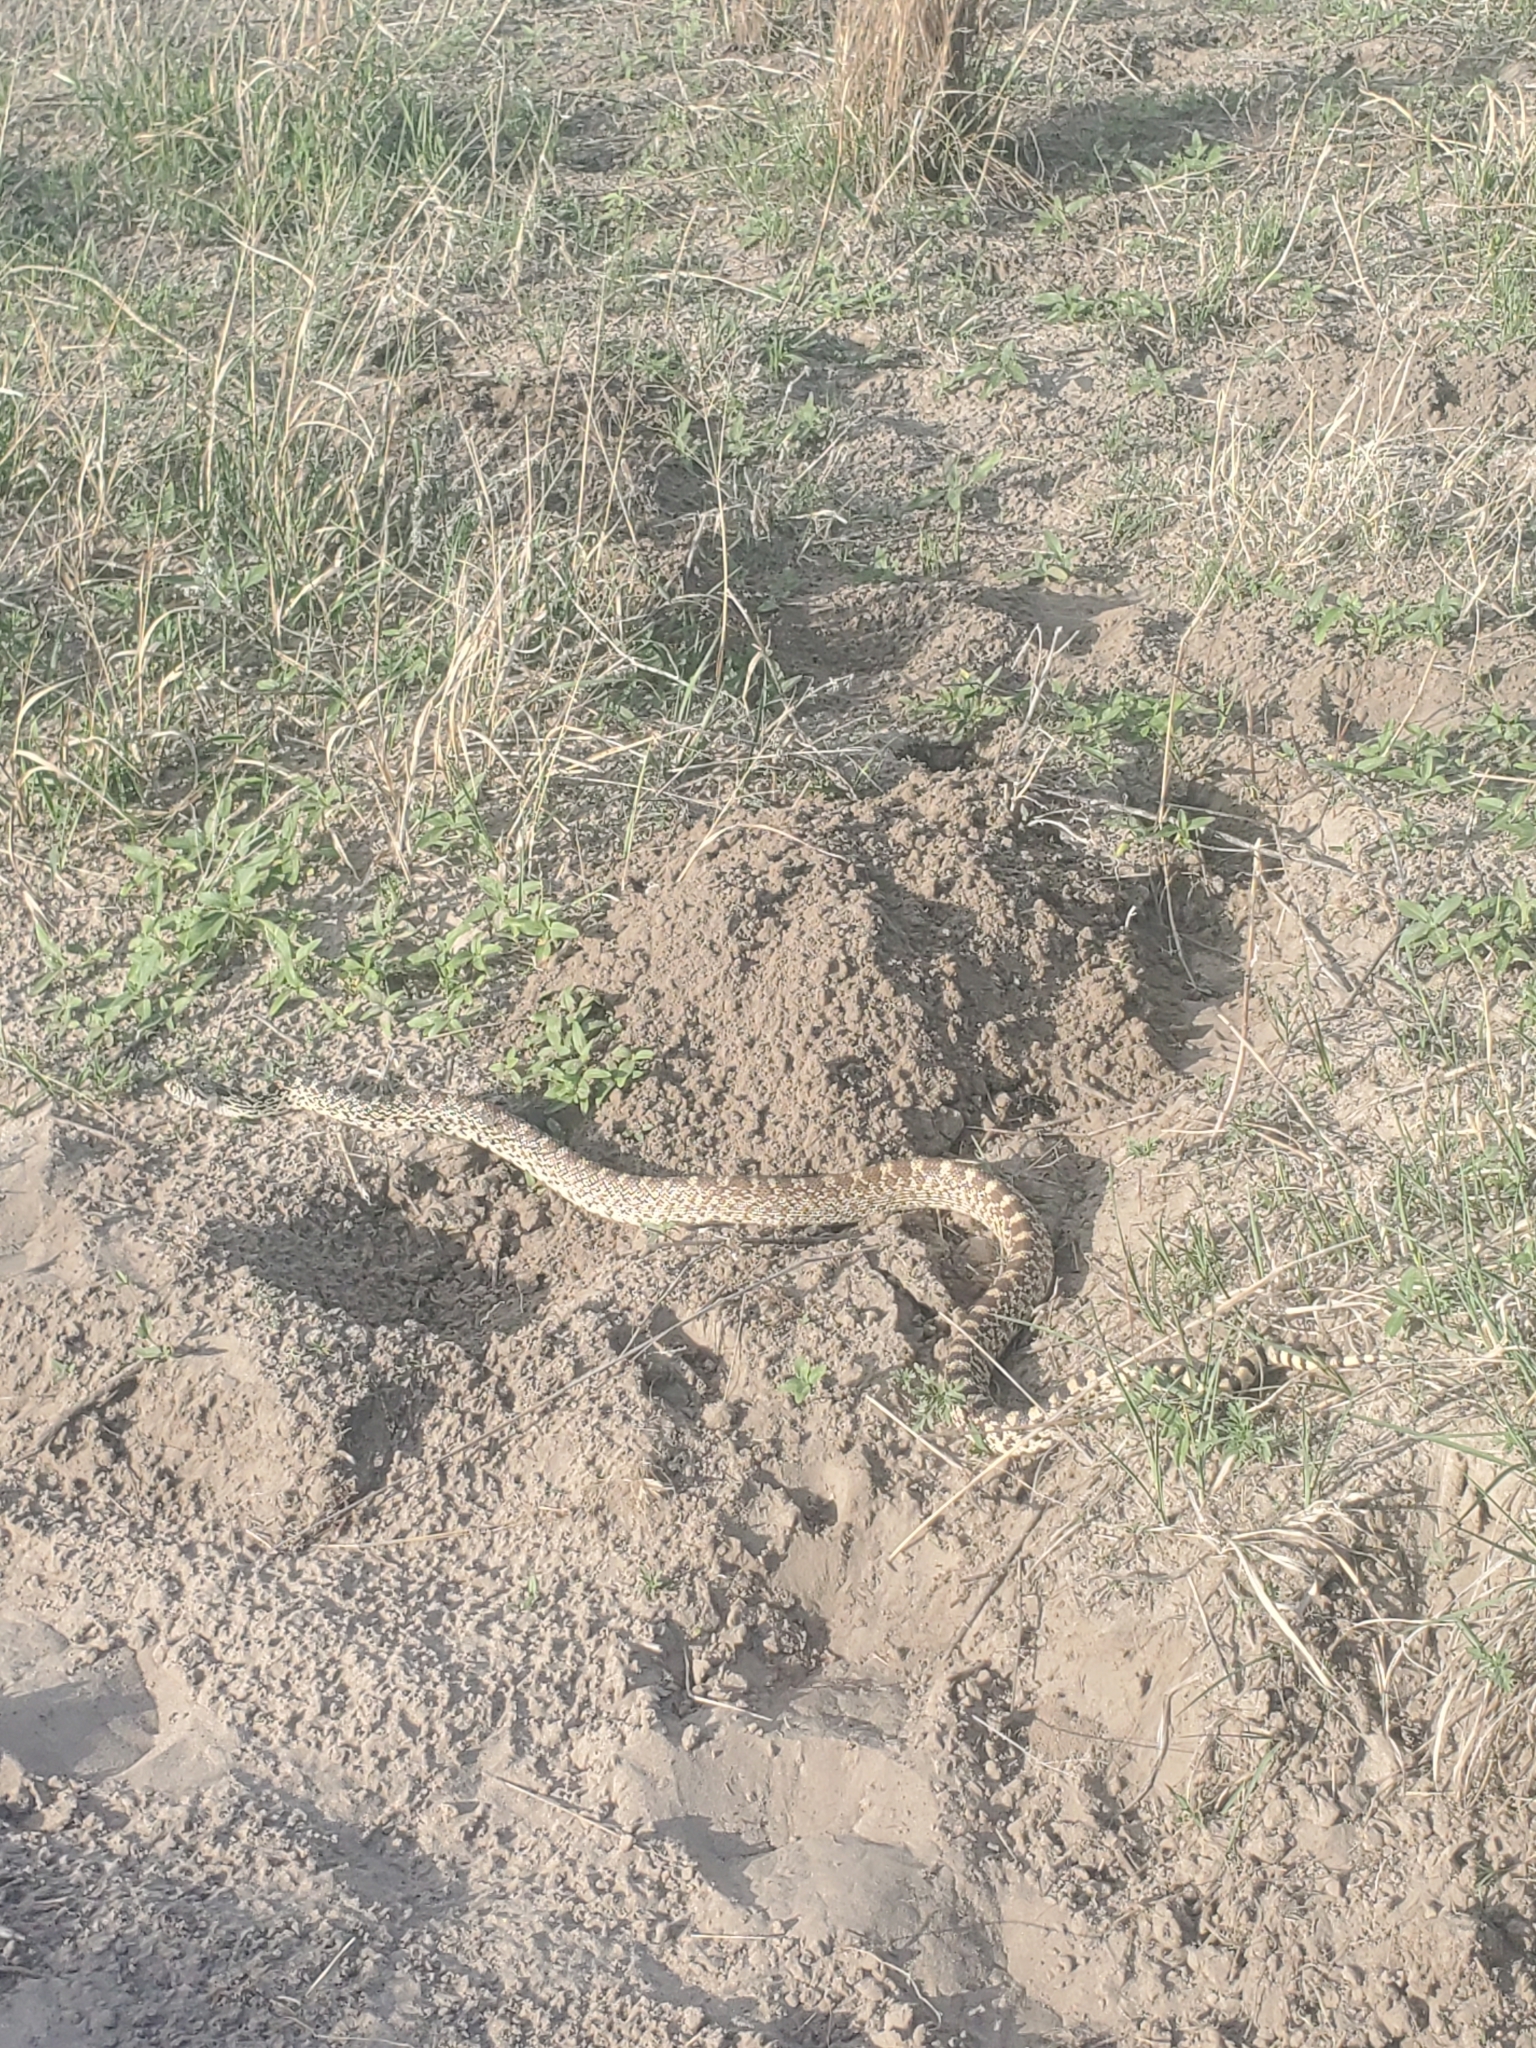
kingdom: Animalia
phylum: Chordata
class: Squamata
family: Colubridae
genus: Pituophis
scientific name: Pituophis catenifer
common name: Gopher snake
